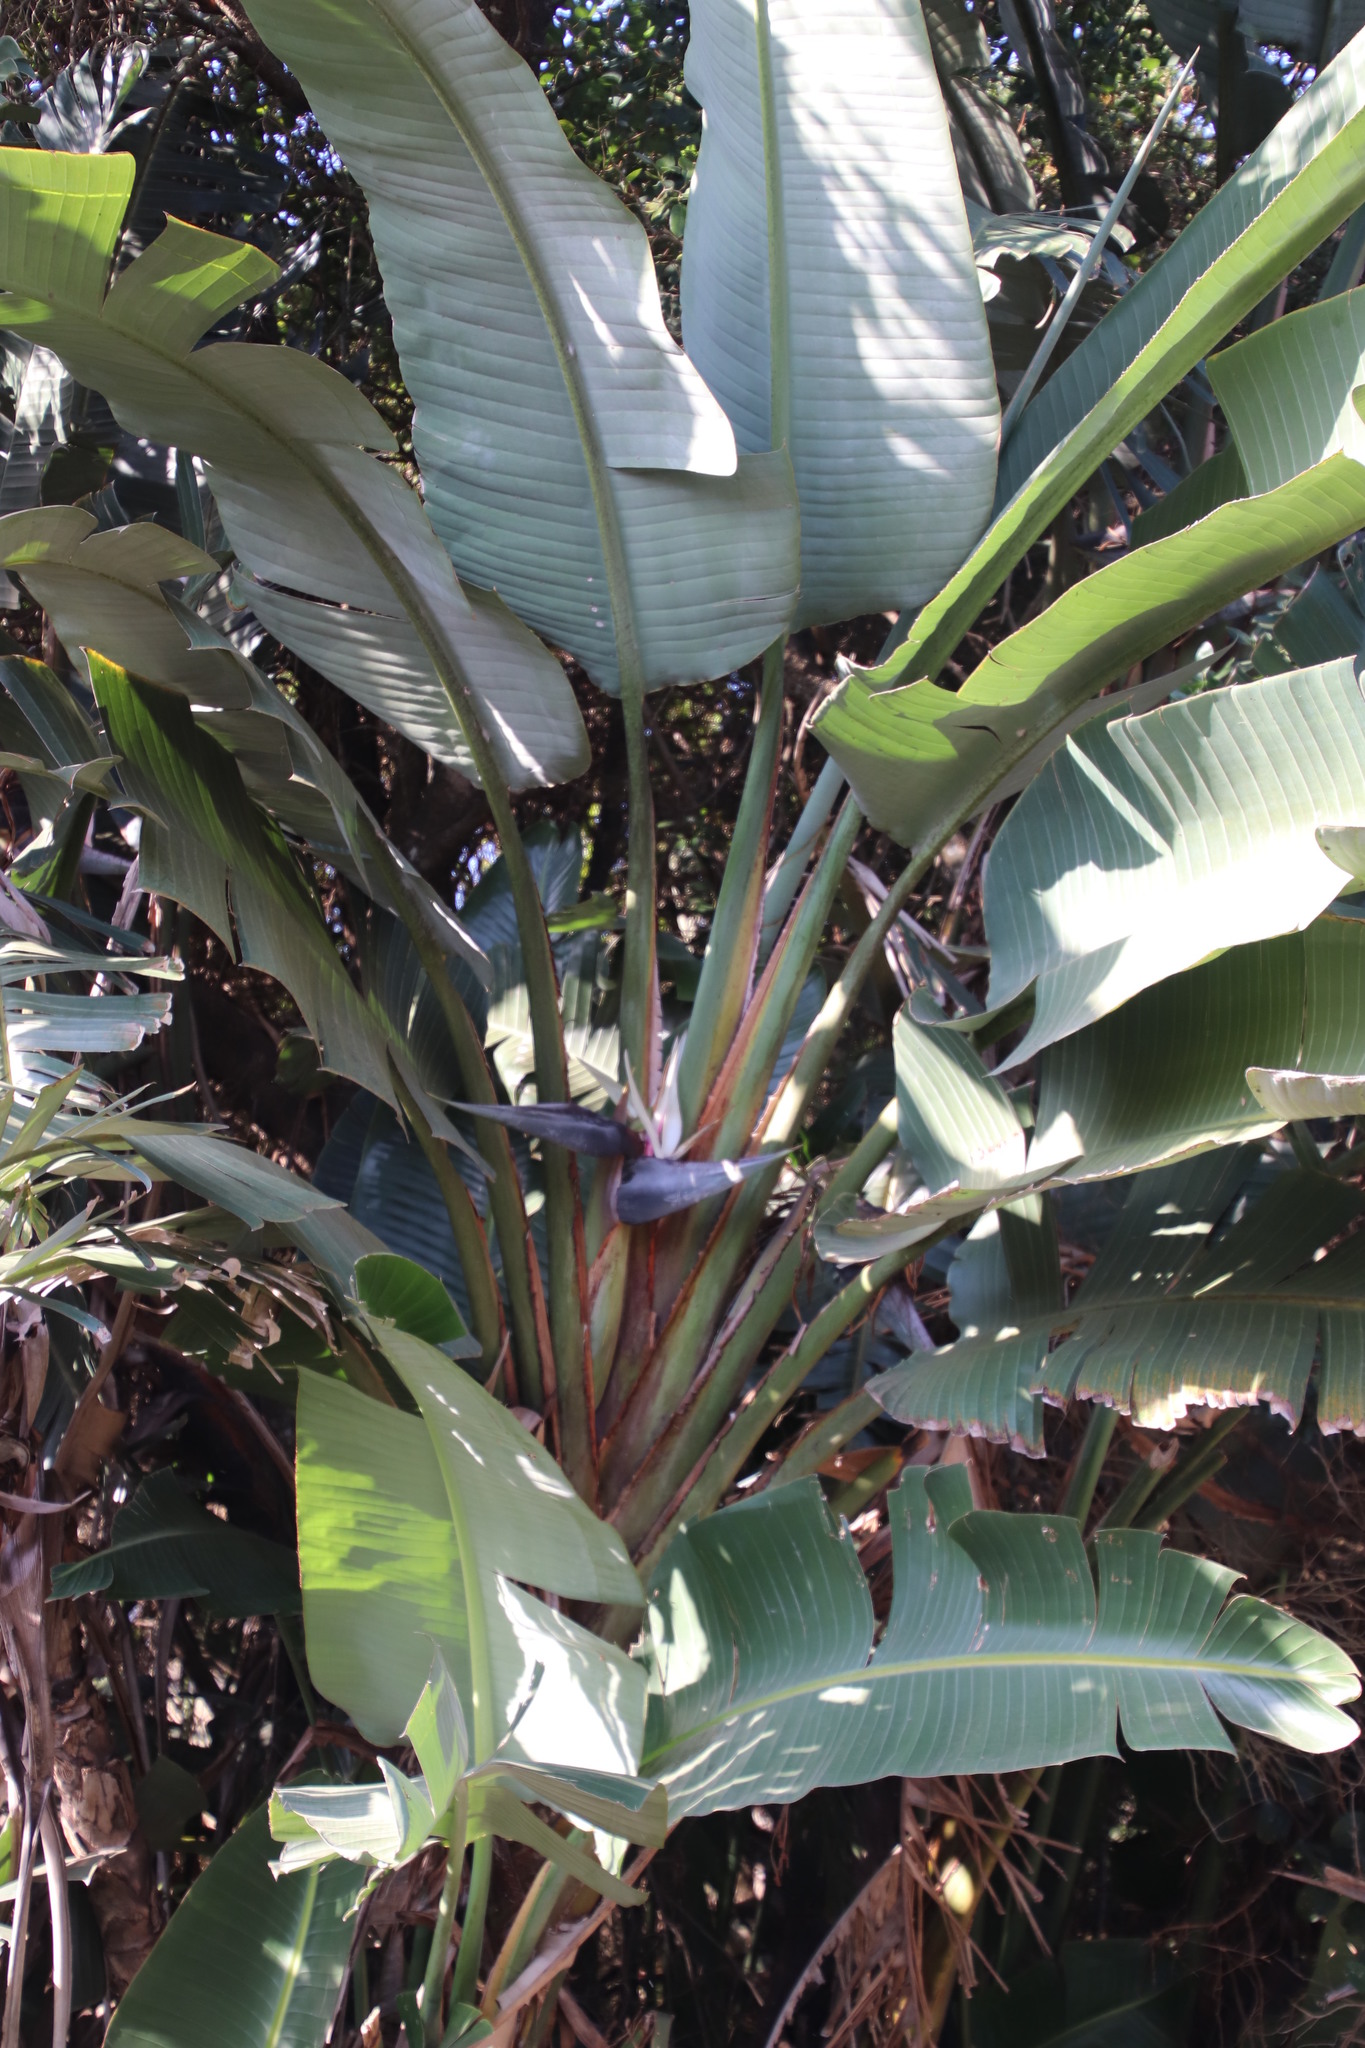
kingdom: Plantae
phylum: Tracheophyta
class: Liliopsida
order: Zingiberales
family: Strelitziaceae
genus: Strelitzia
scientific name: Strelitzia nicolai
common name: Bird-of-paradise tree
